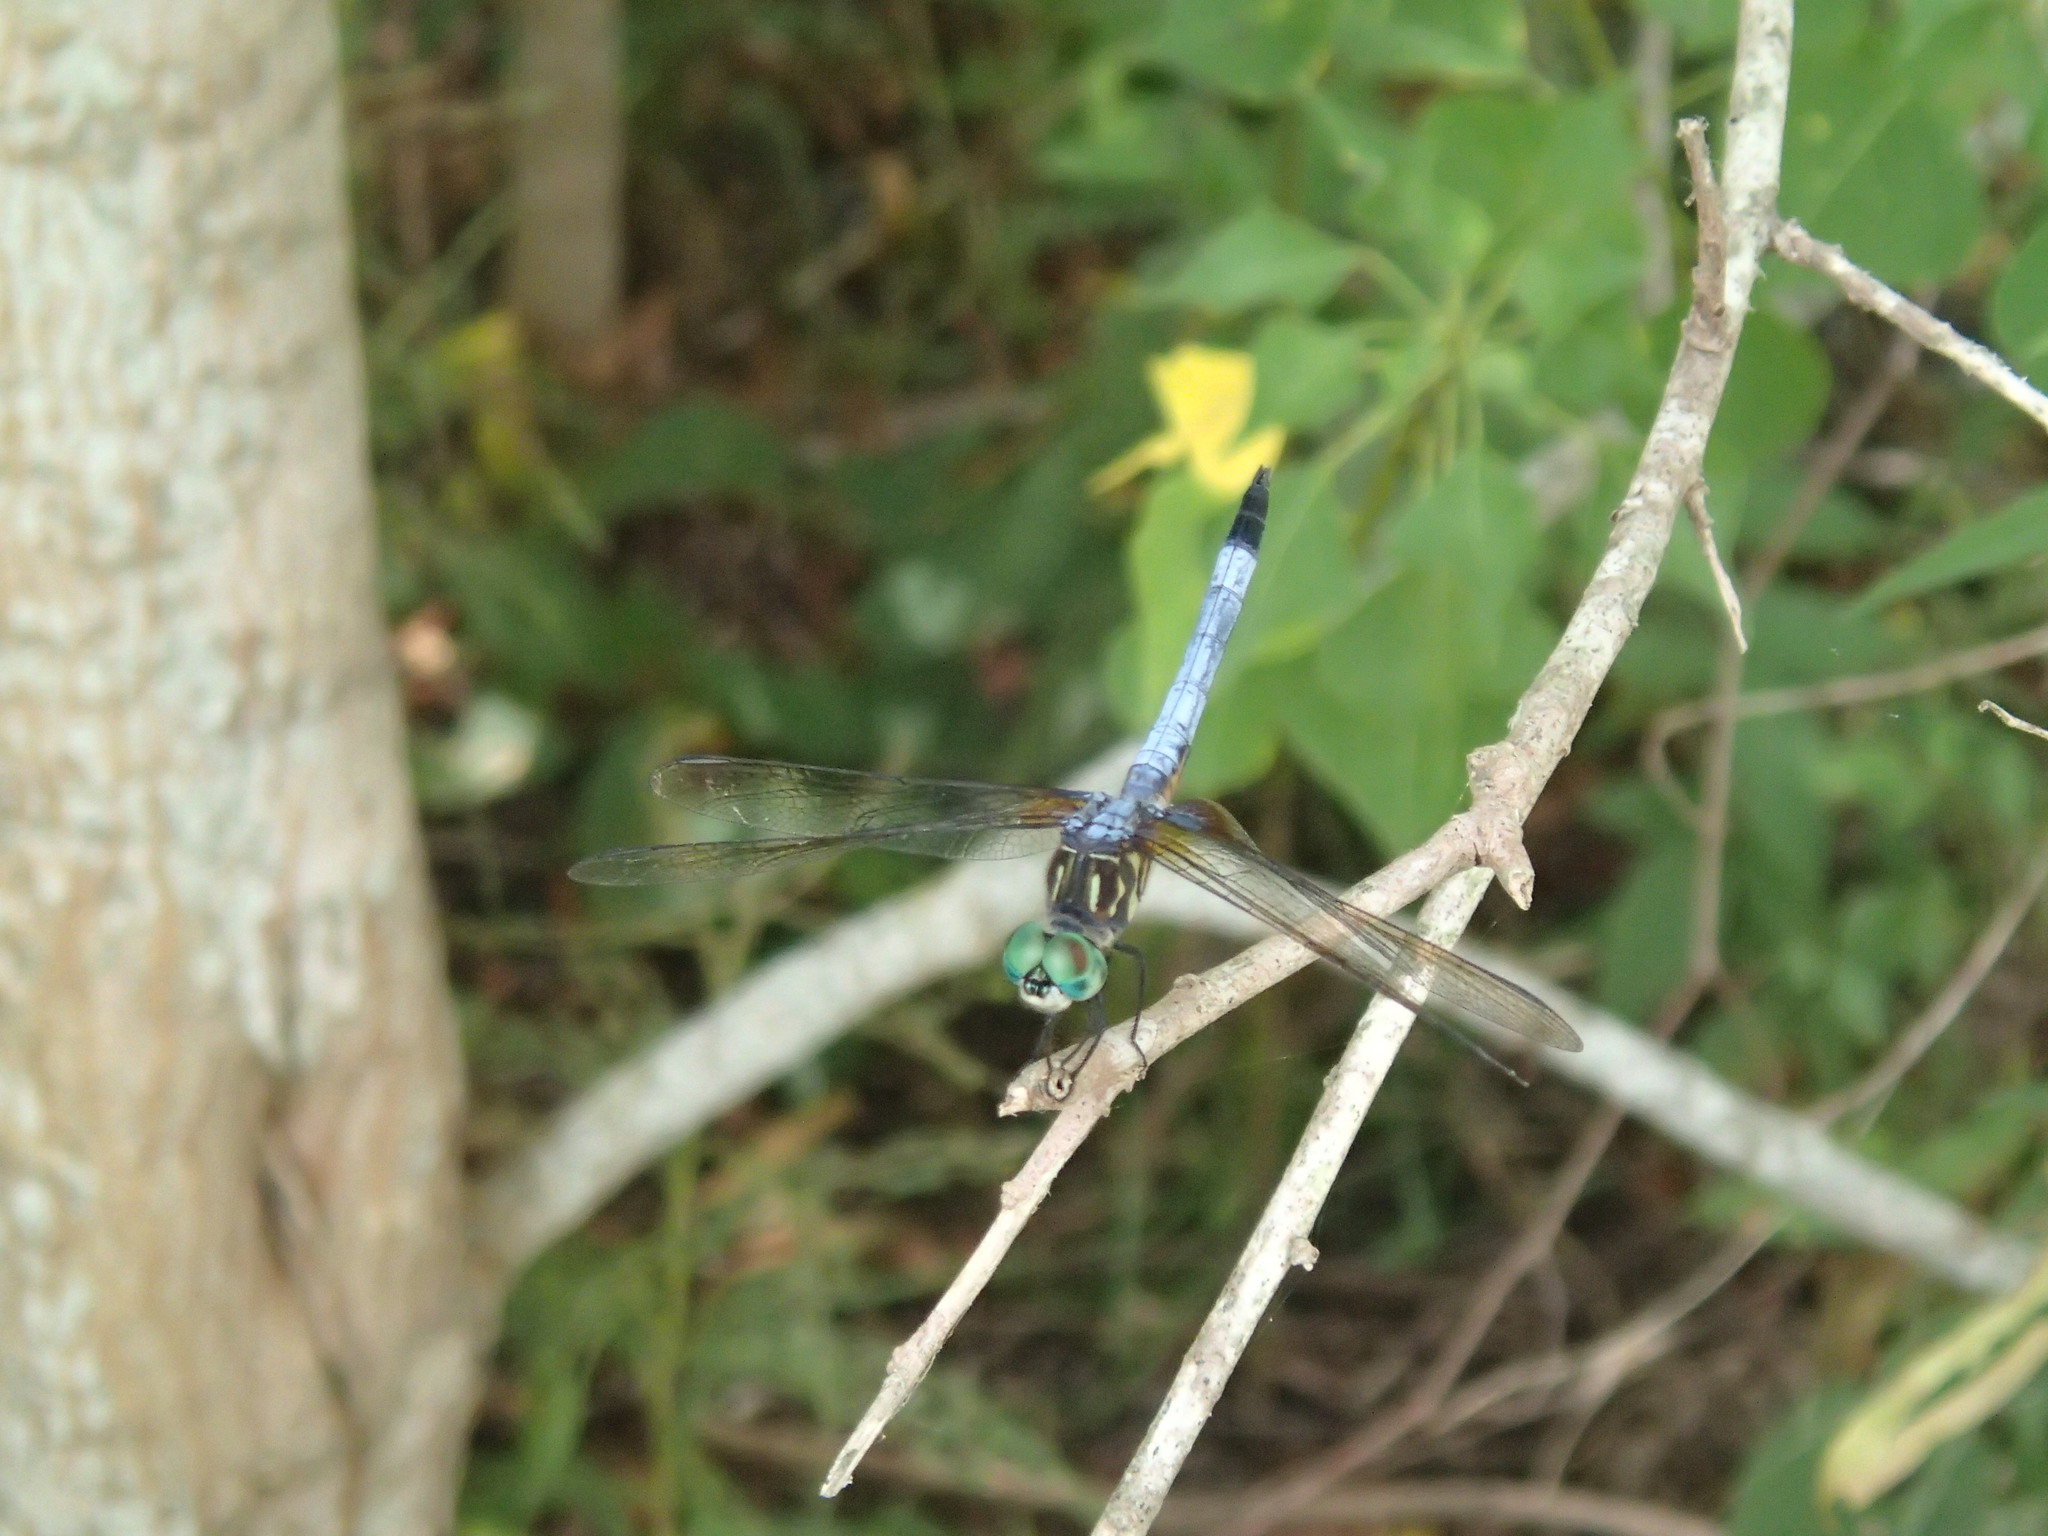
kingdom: Animalia
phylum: Arthropoda
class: Insecta
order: Odonata
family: Libellulidae
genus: Pachydiplax
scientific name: Pachydiplax longipennis
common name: Blue dasher
